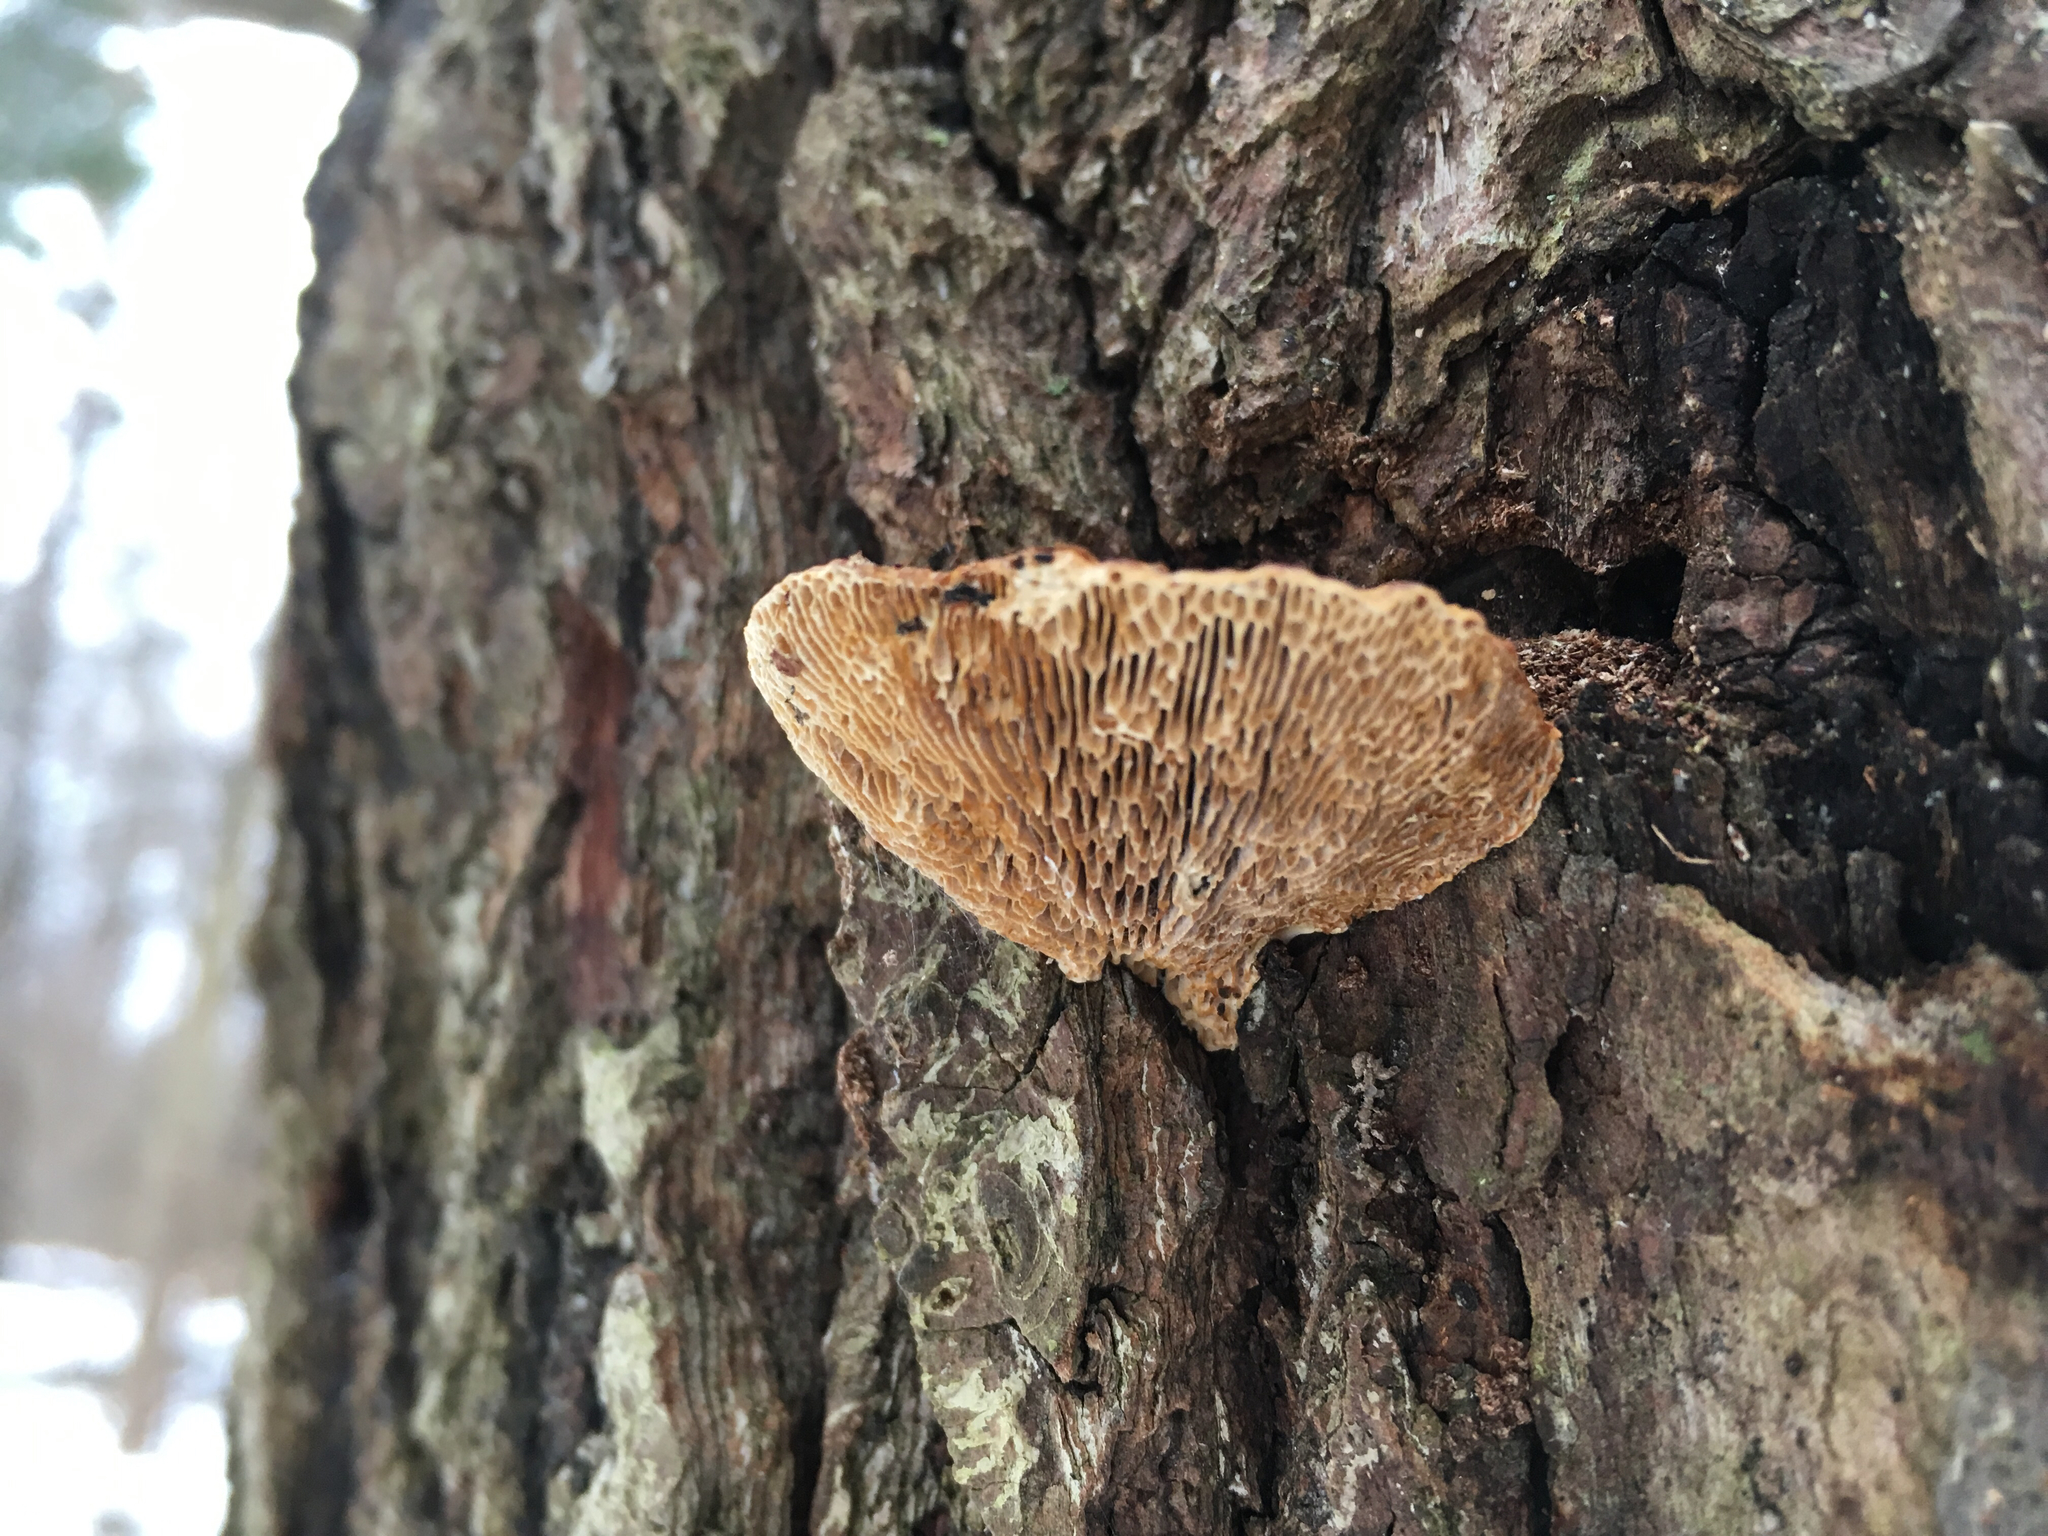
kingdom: Fungi
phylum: Basidiomycota
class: Agaricomycetes
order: Polyporales
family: Polyporaceae
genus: Daedaleopsis
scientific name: Daedaleopsis confragosa
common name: Blushing bracket
